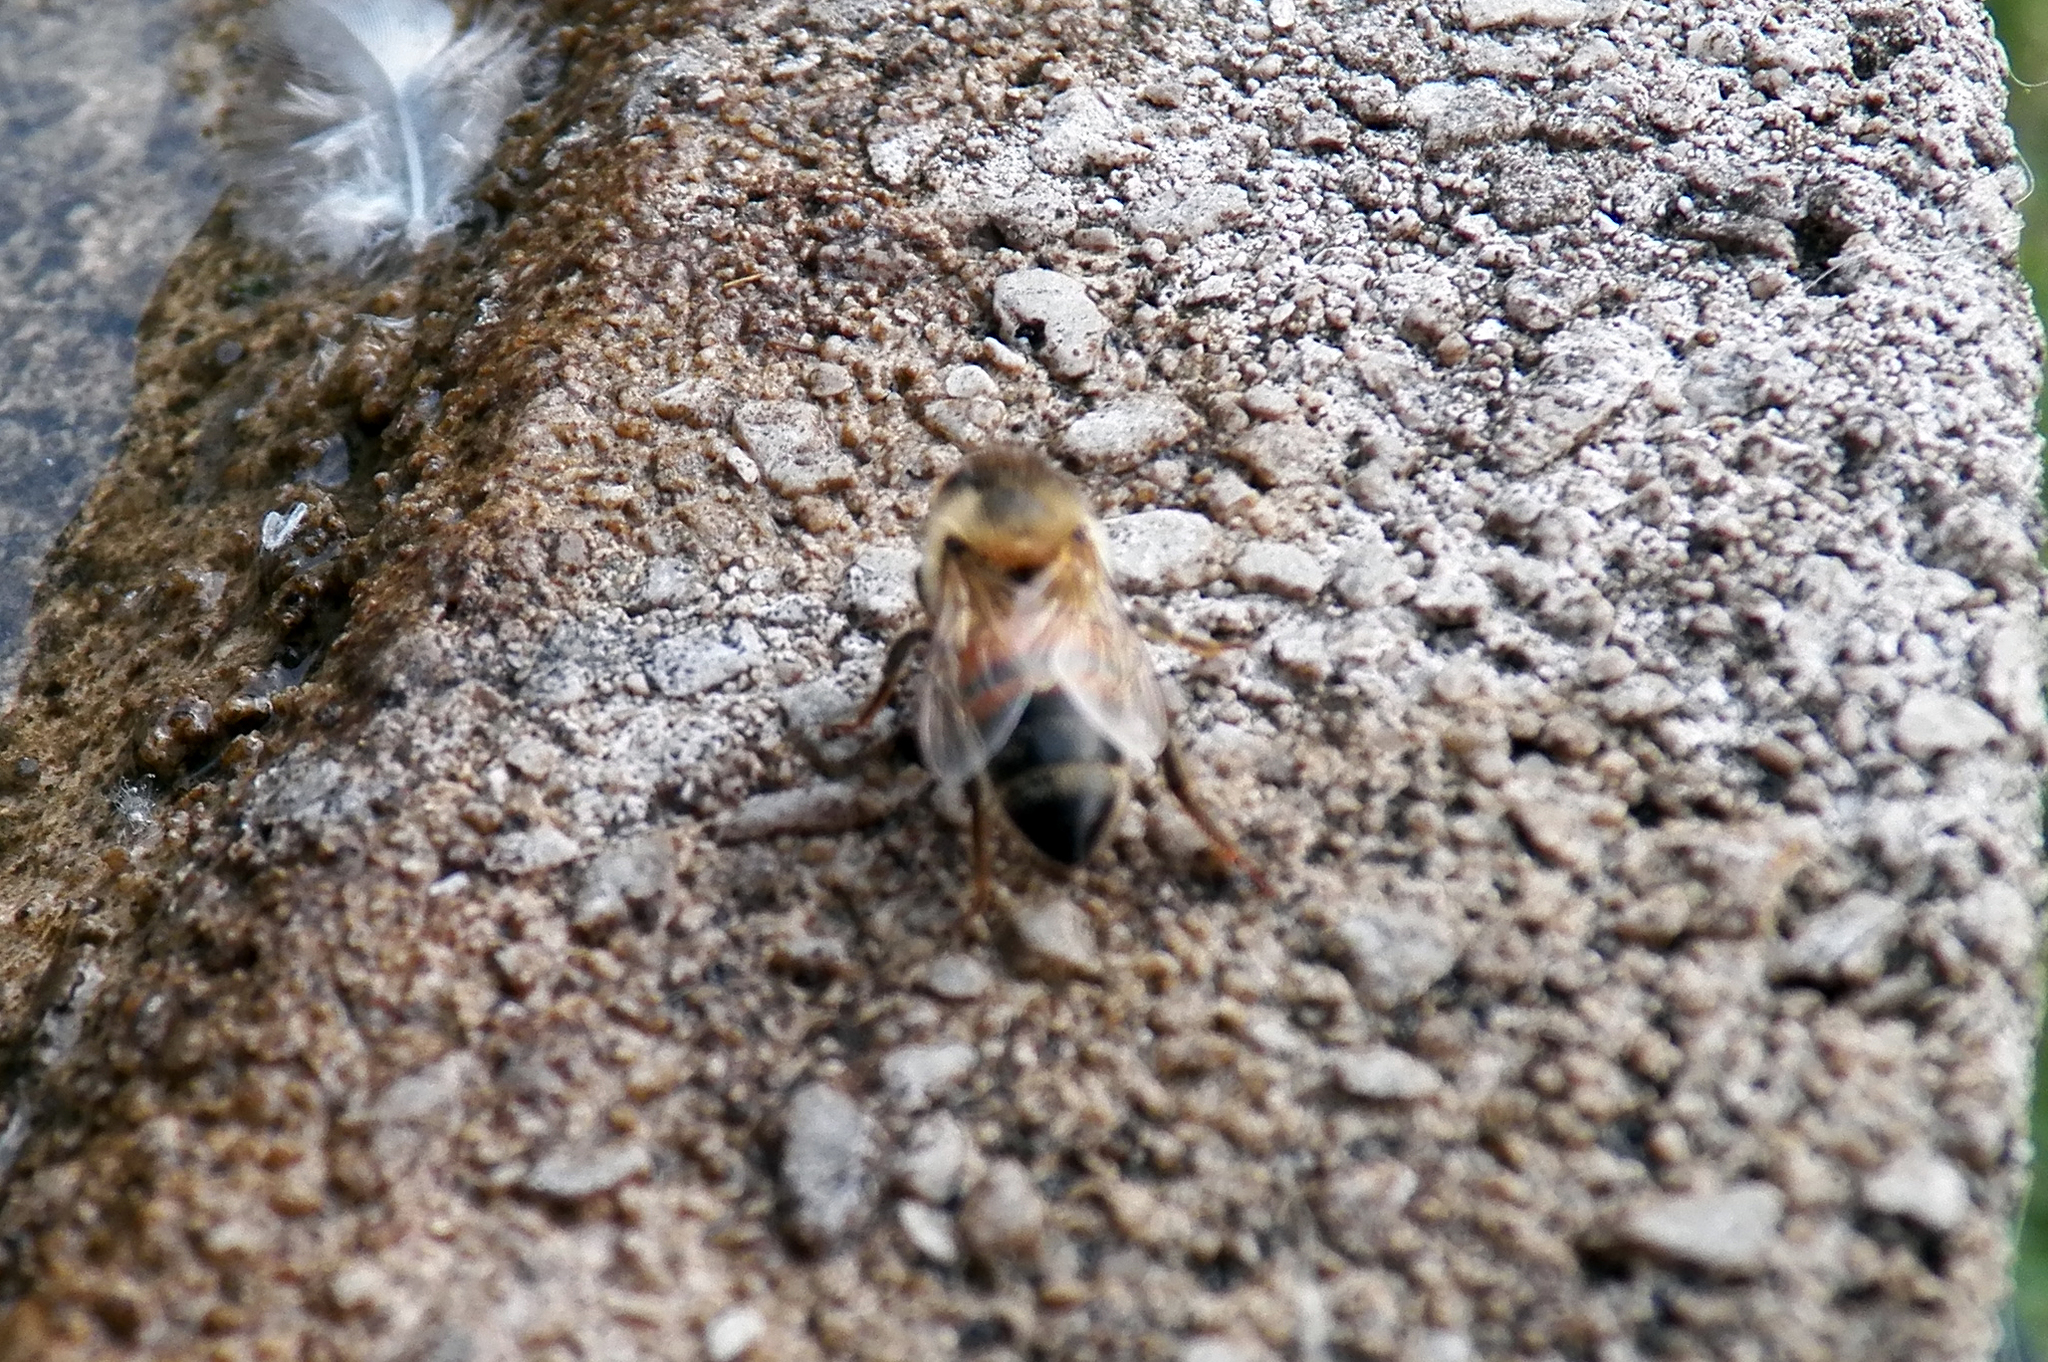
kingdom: Animalia
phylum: Arthropoda
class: Insecta
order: Hymenoptera
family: Apidae
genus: Apis
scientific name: Apis mellifera
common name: Honey bee
